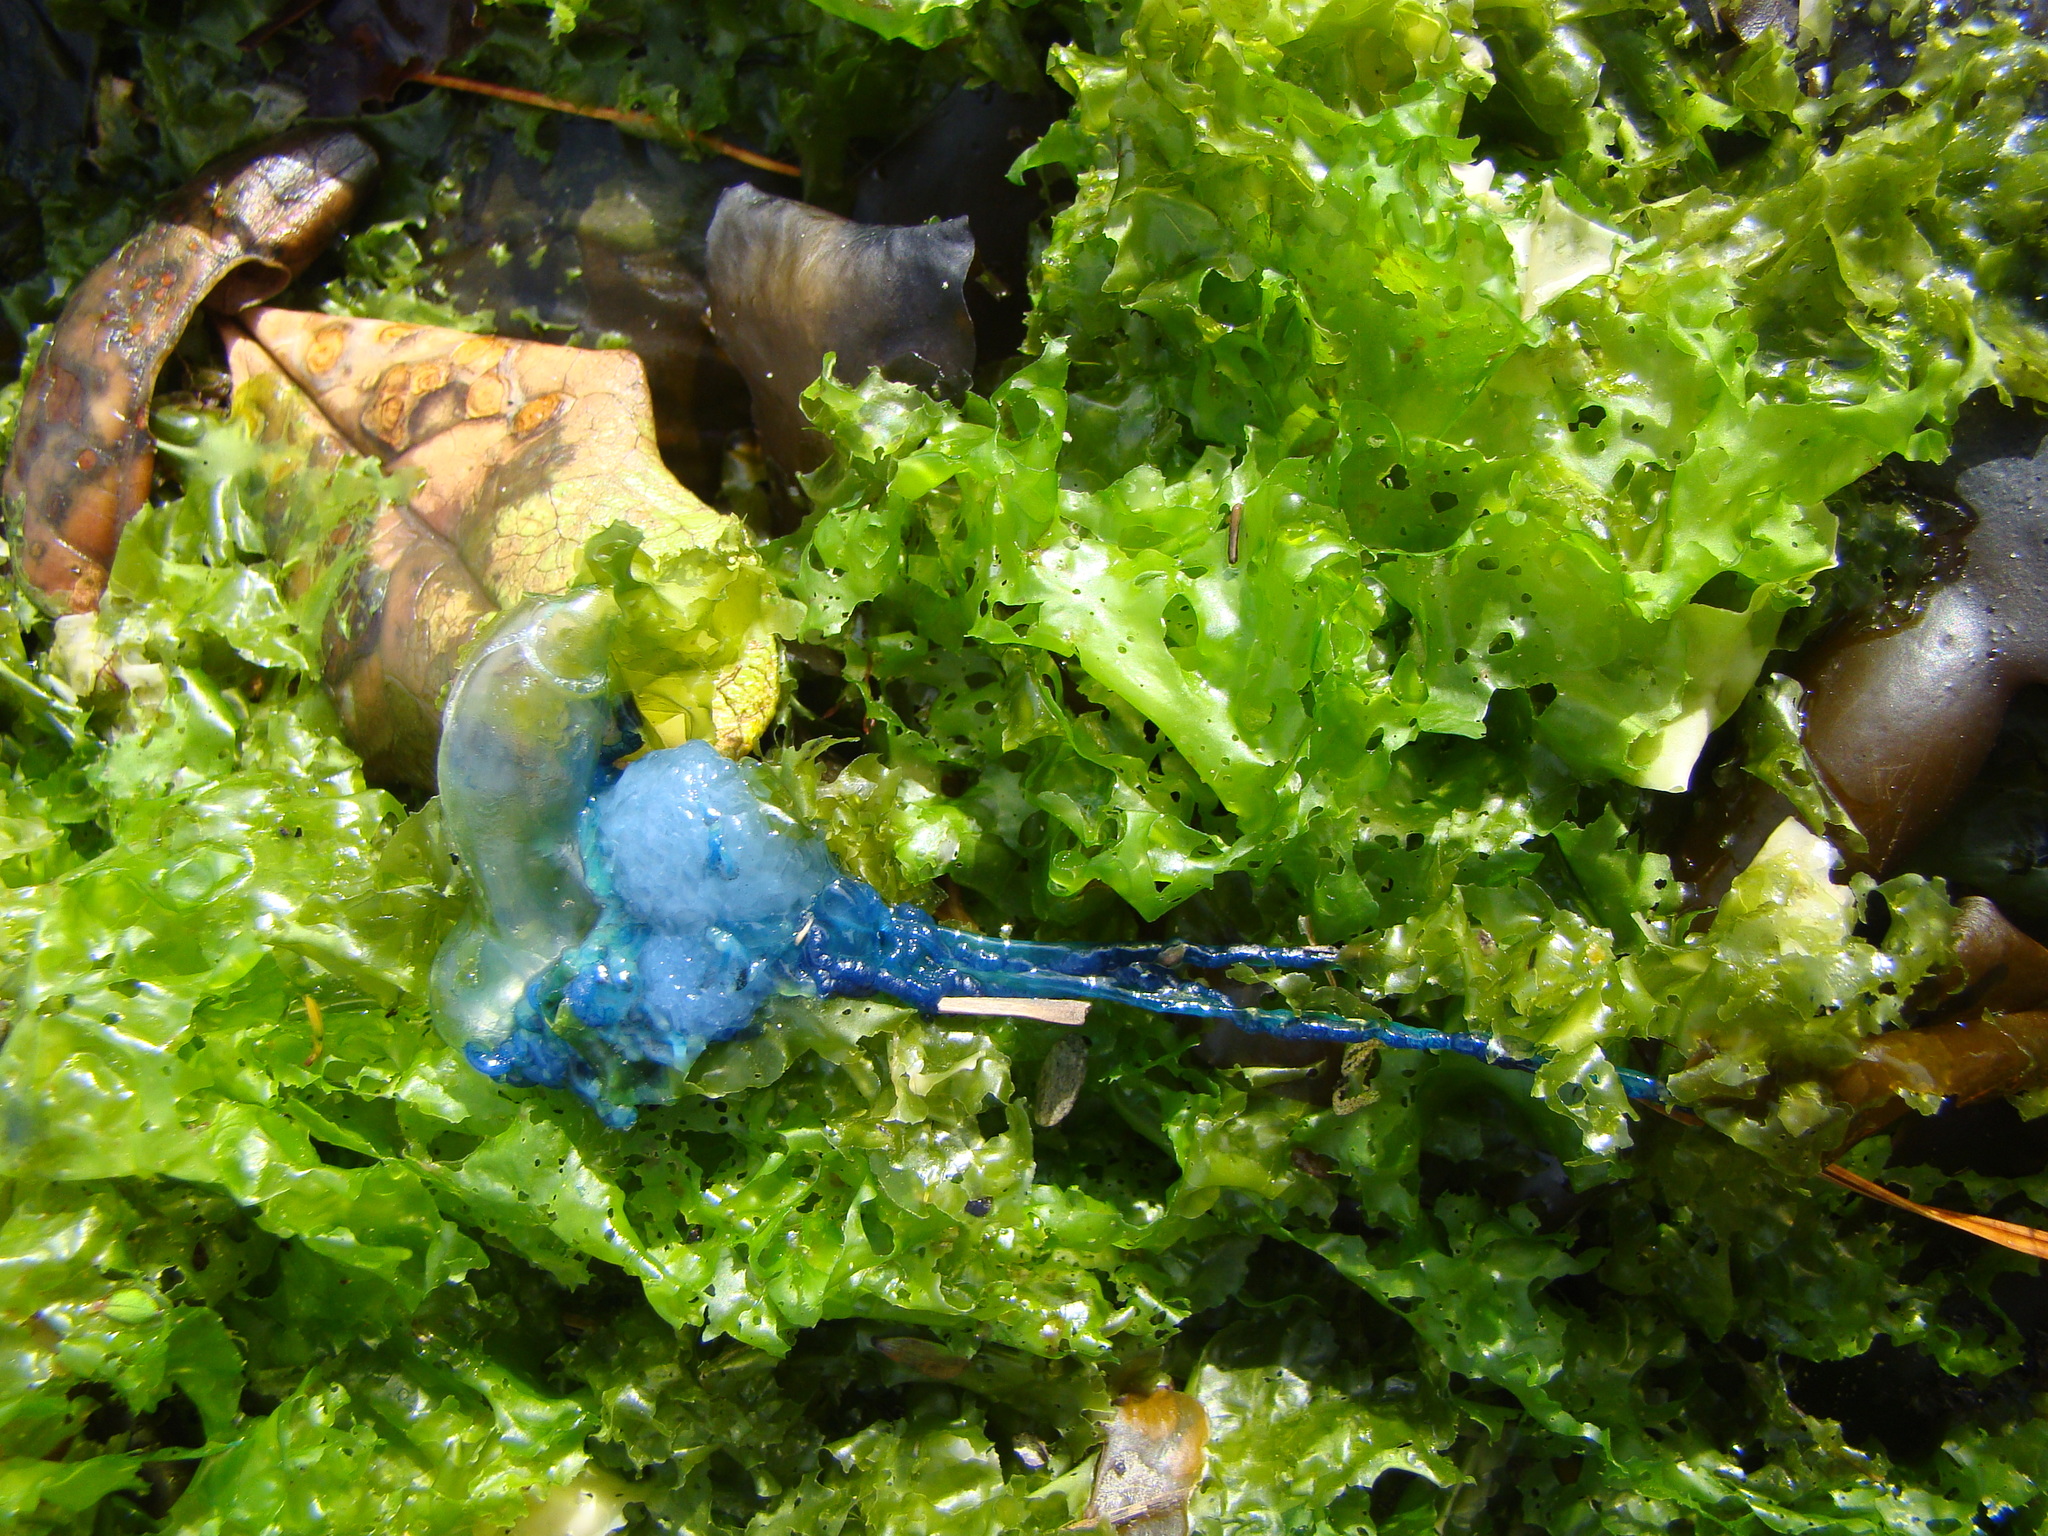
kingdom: Animalia
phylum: Cnidaria
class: Hydrozoa
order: Siphonophorae
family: Physaliidae
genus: Physalia
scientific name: Physalia physalis
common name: Portuguese man-of-war
